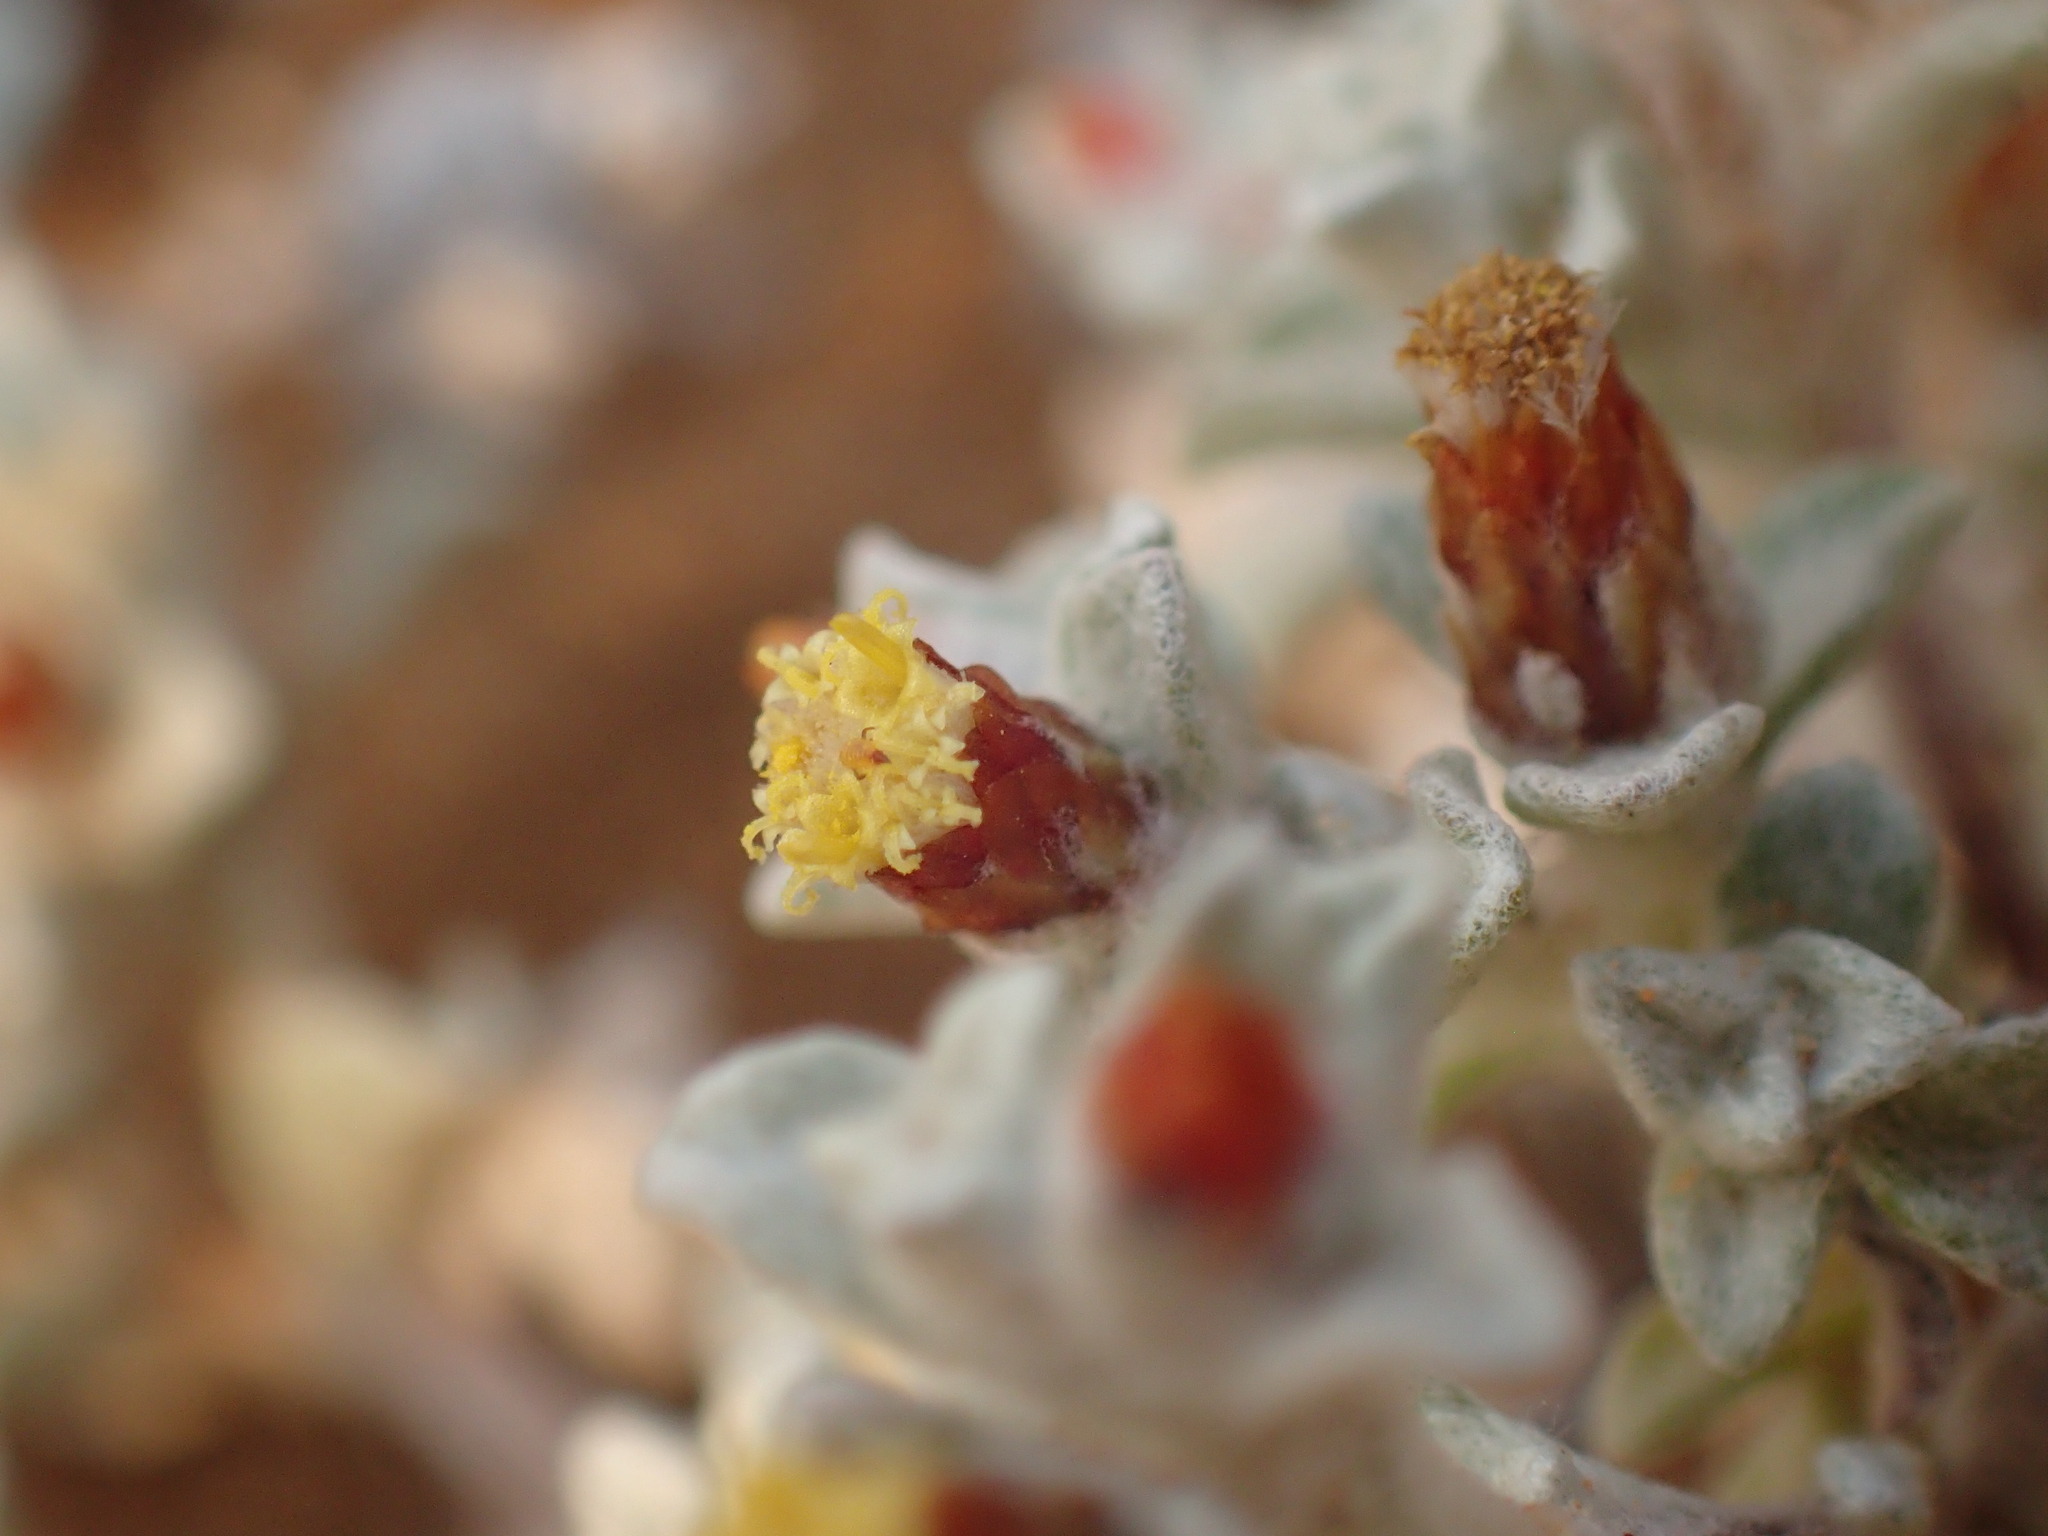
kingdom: Plantae
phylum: Tracheophyta
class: Magnoliopsida
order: Asterales
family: Asteraceae
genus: Helichrysum
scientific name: Helichrysum obtusum
